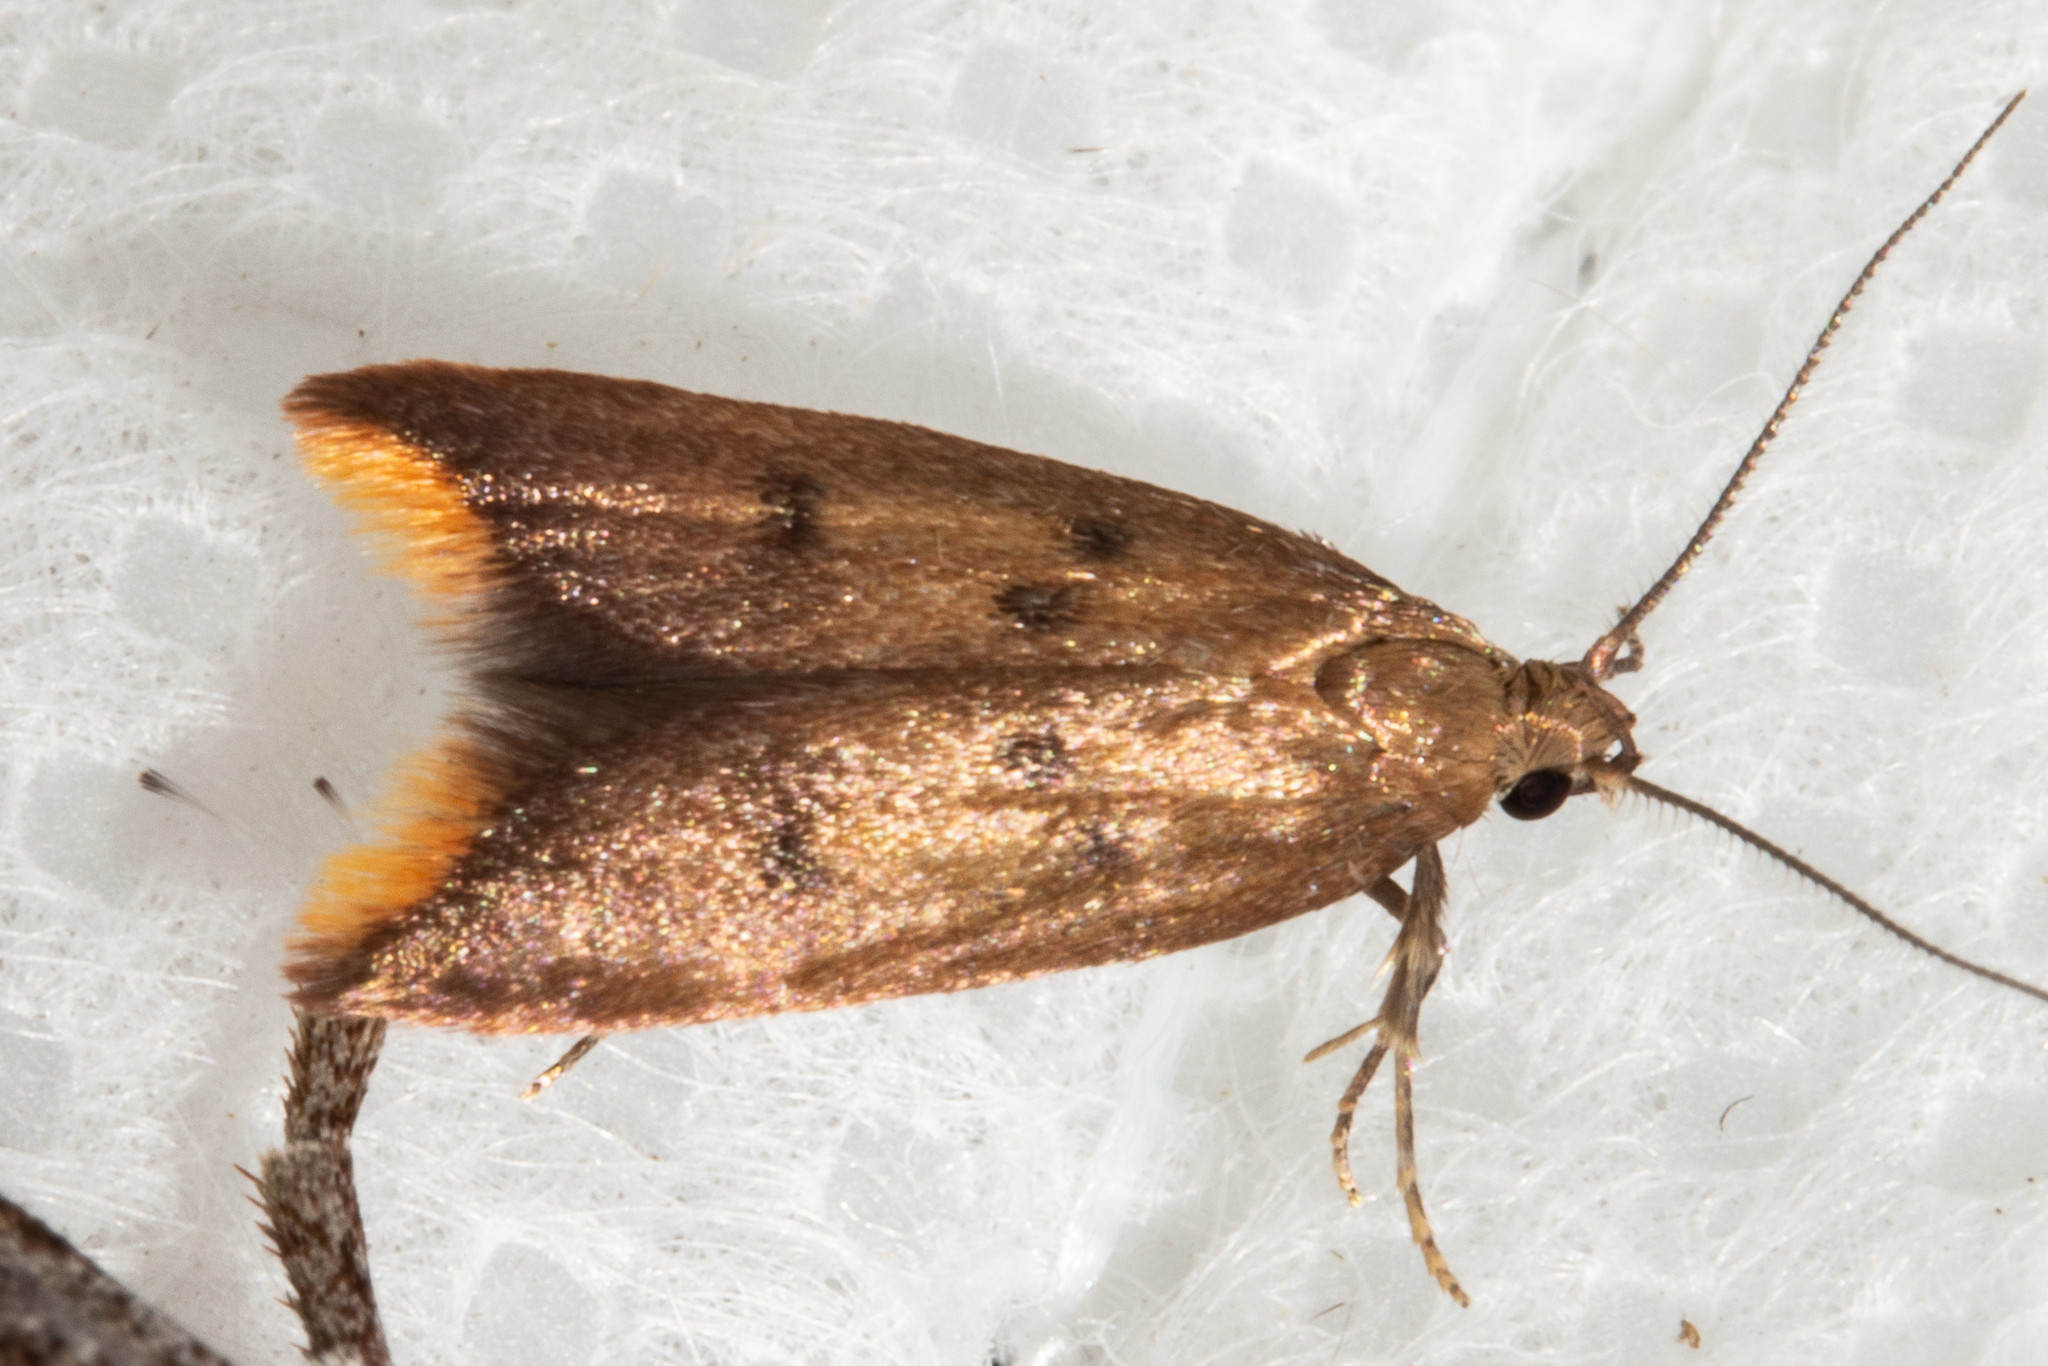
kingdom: Animalia
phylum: Arthropoda
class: Insecta
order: Lepidoptera
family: Oecophoridae
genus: Tachystola
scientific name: Tachystola acroxantha
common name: Ruddy streak
